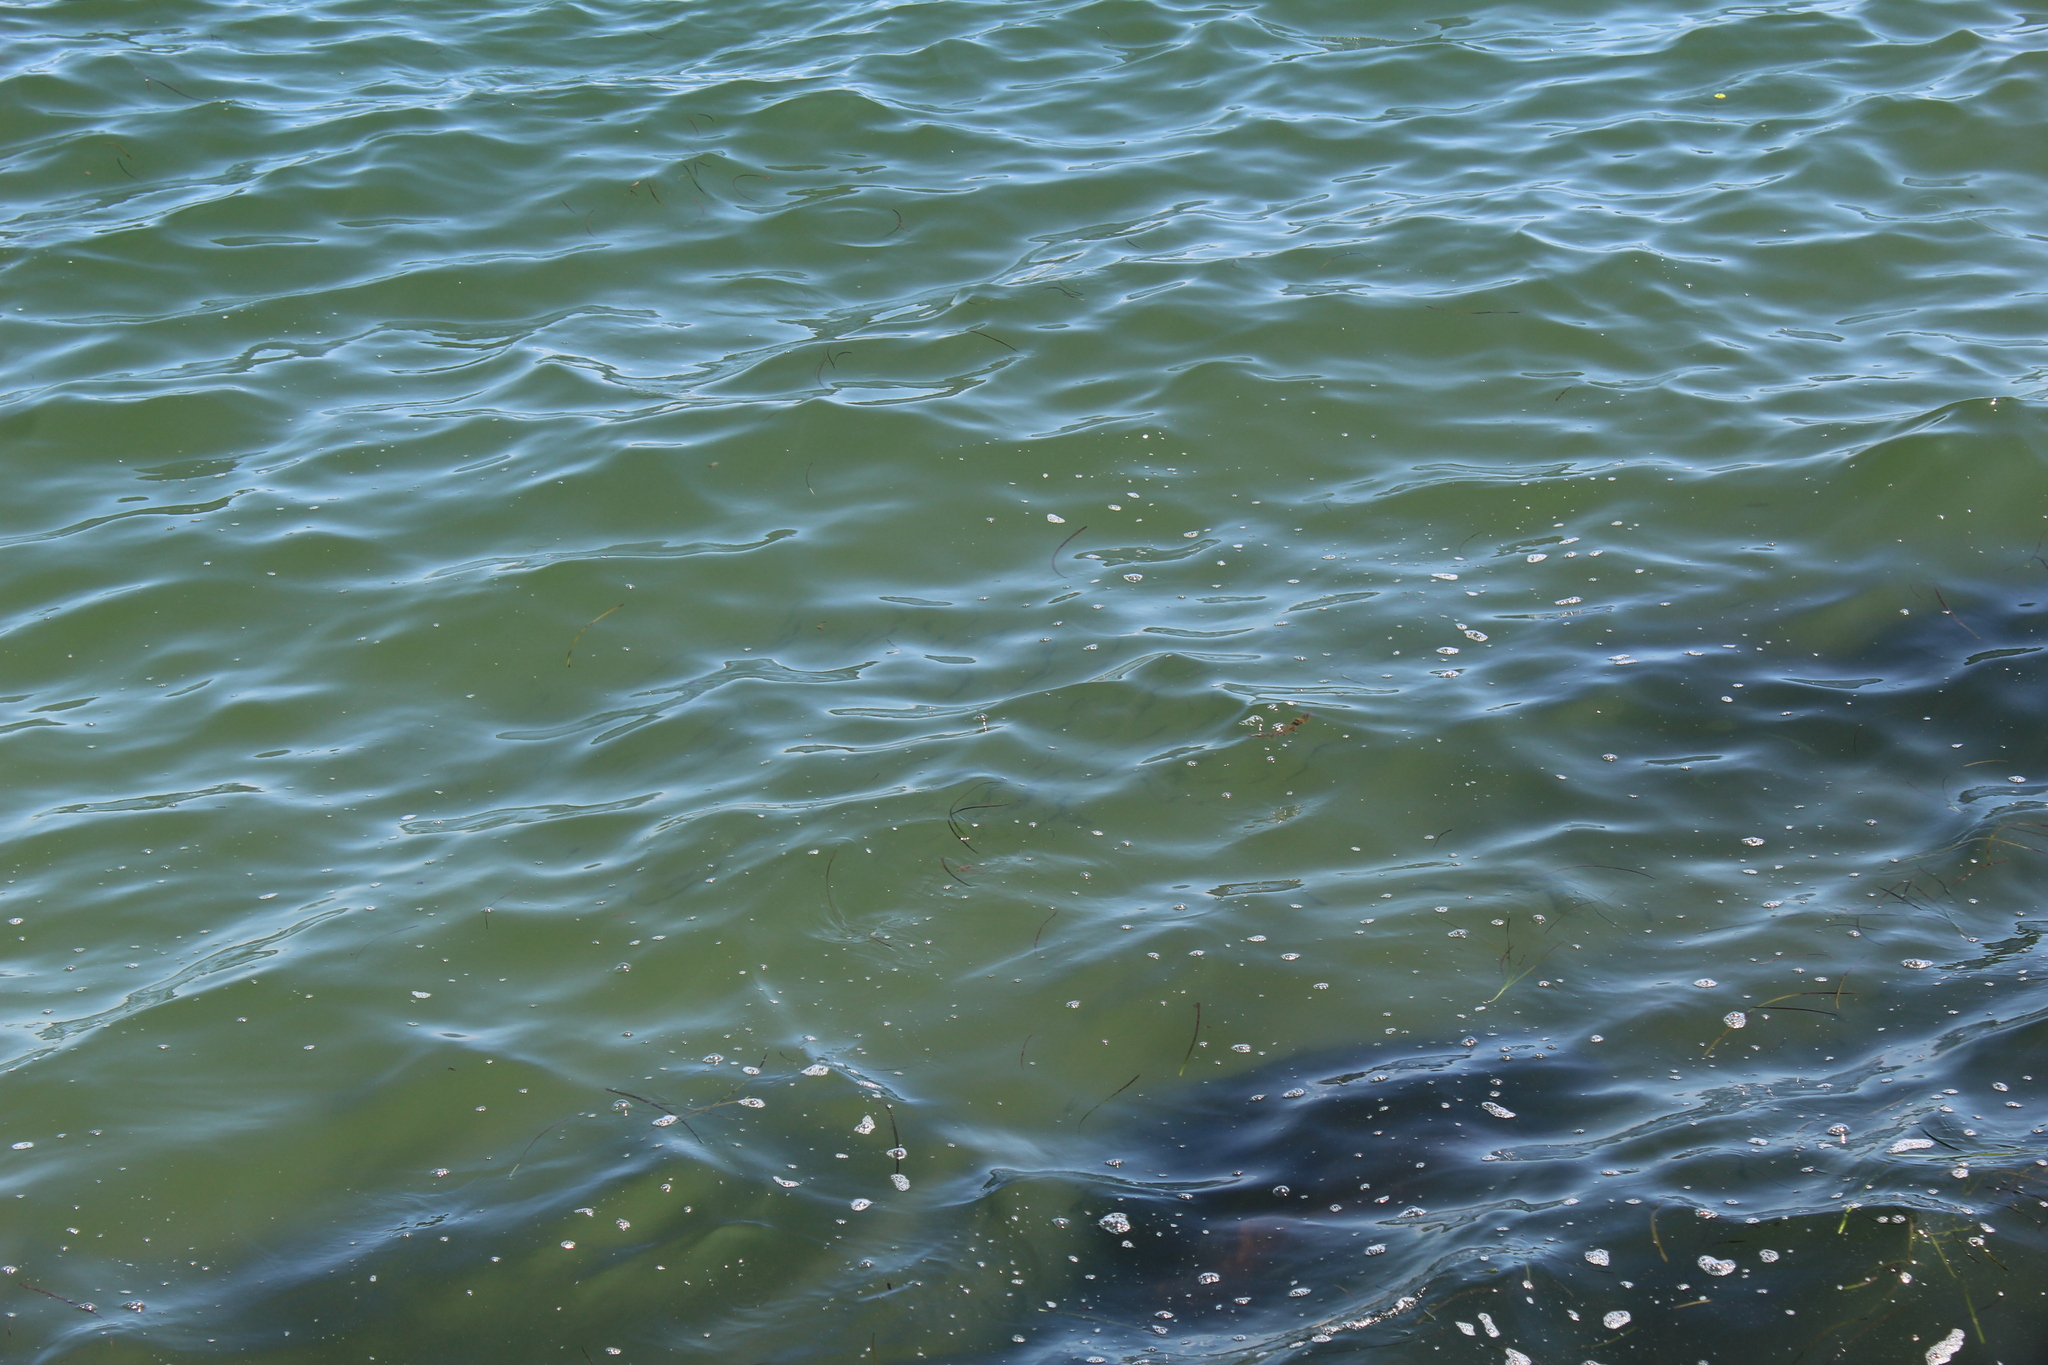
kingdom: Animalia
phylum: Chordata
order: Atheriniformes
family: Atherinopsidae
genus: Menidia
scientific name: Menidia menidia
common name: Atlantic silverside
